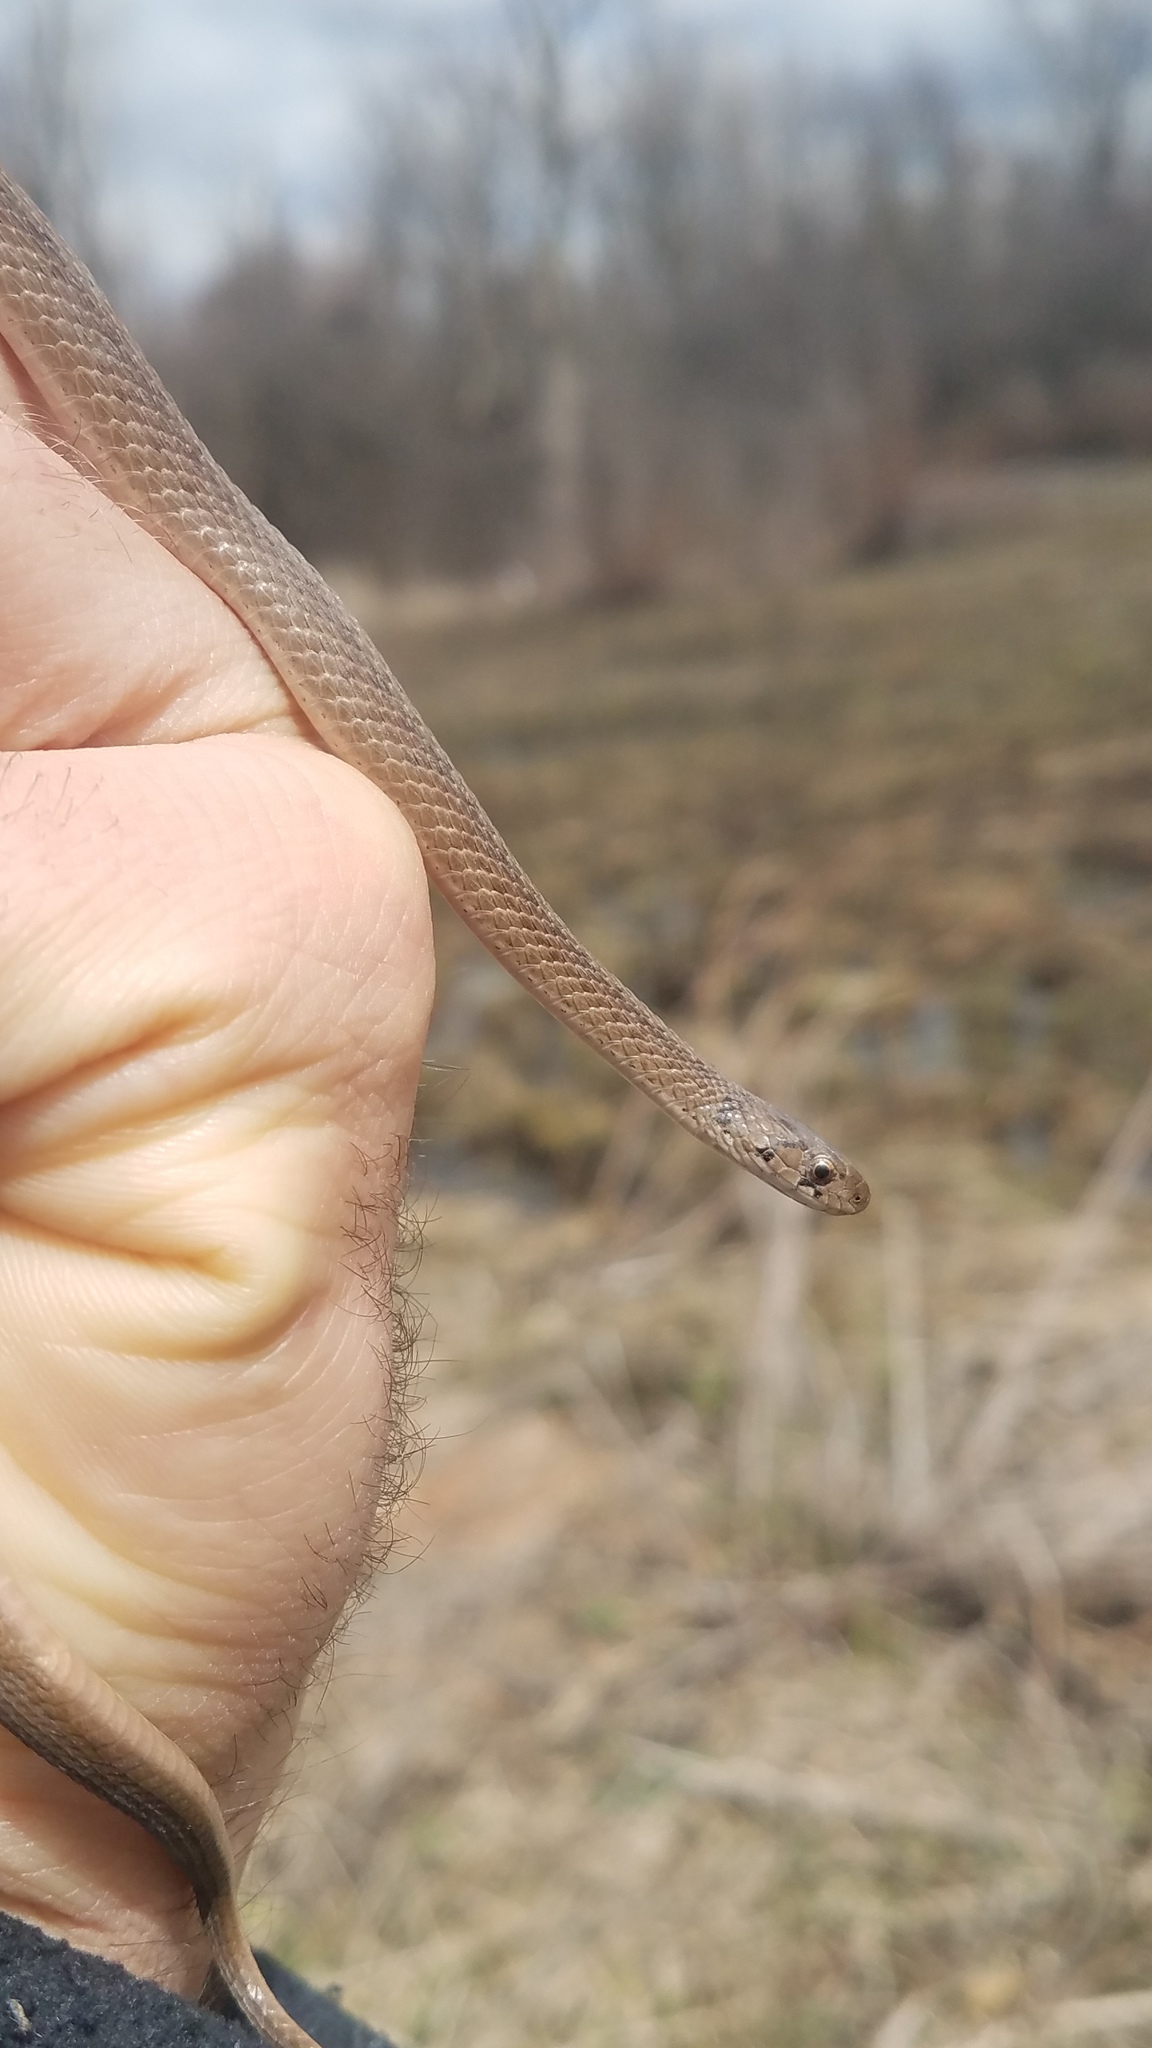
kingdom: Animalia
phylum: Chordata
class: Squamata
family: Colubridae
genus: Storeria
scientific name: Storeria dekayi
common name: (dekay’s) brown snake
